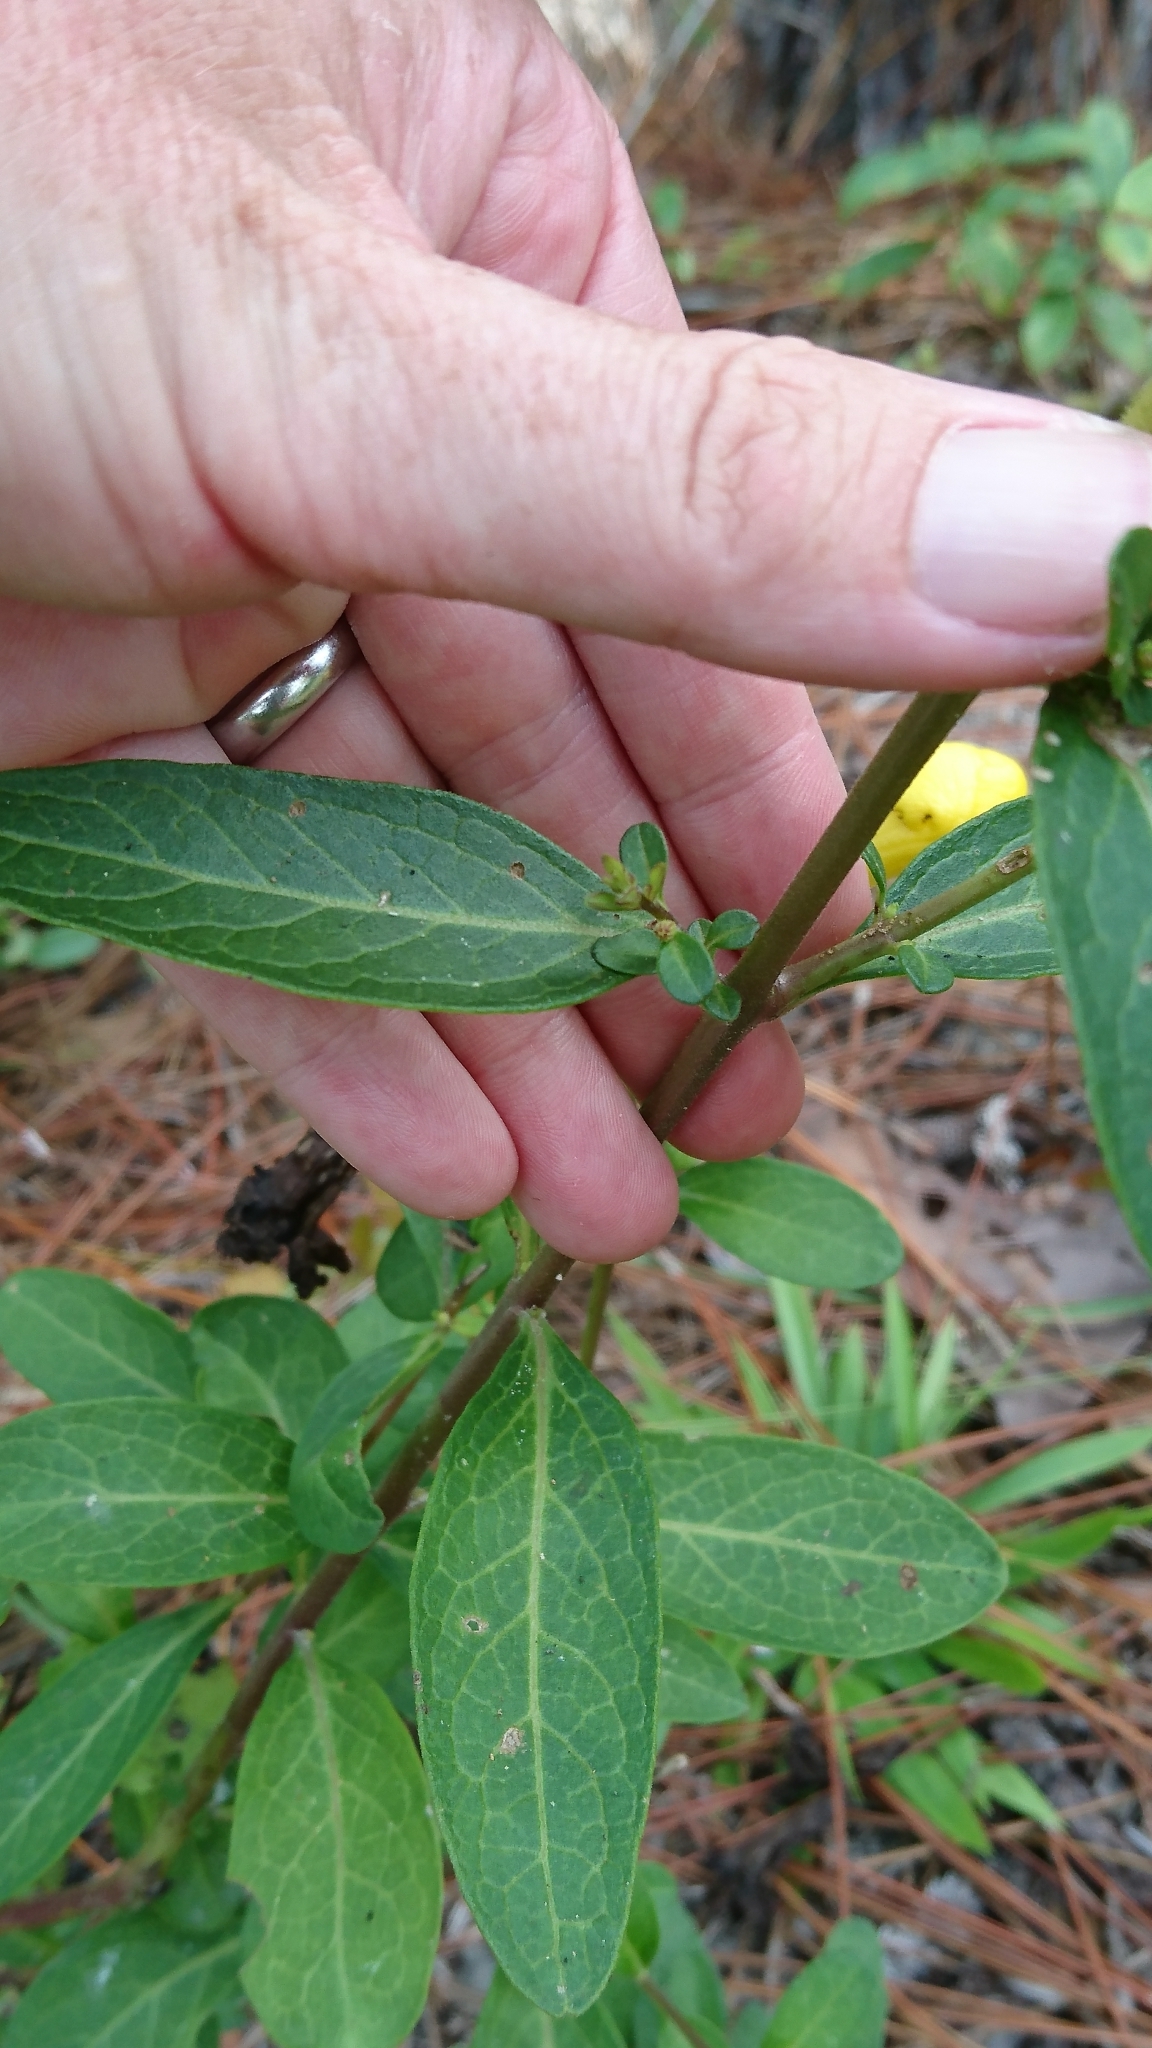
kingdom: Plantae
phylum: Tracheophyta
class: Magnoliopsida
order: Lamiales
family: Orobanchaceae
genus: Aureolaria
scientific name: Aureolaria flava
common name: Smooth false foxglove
